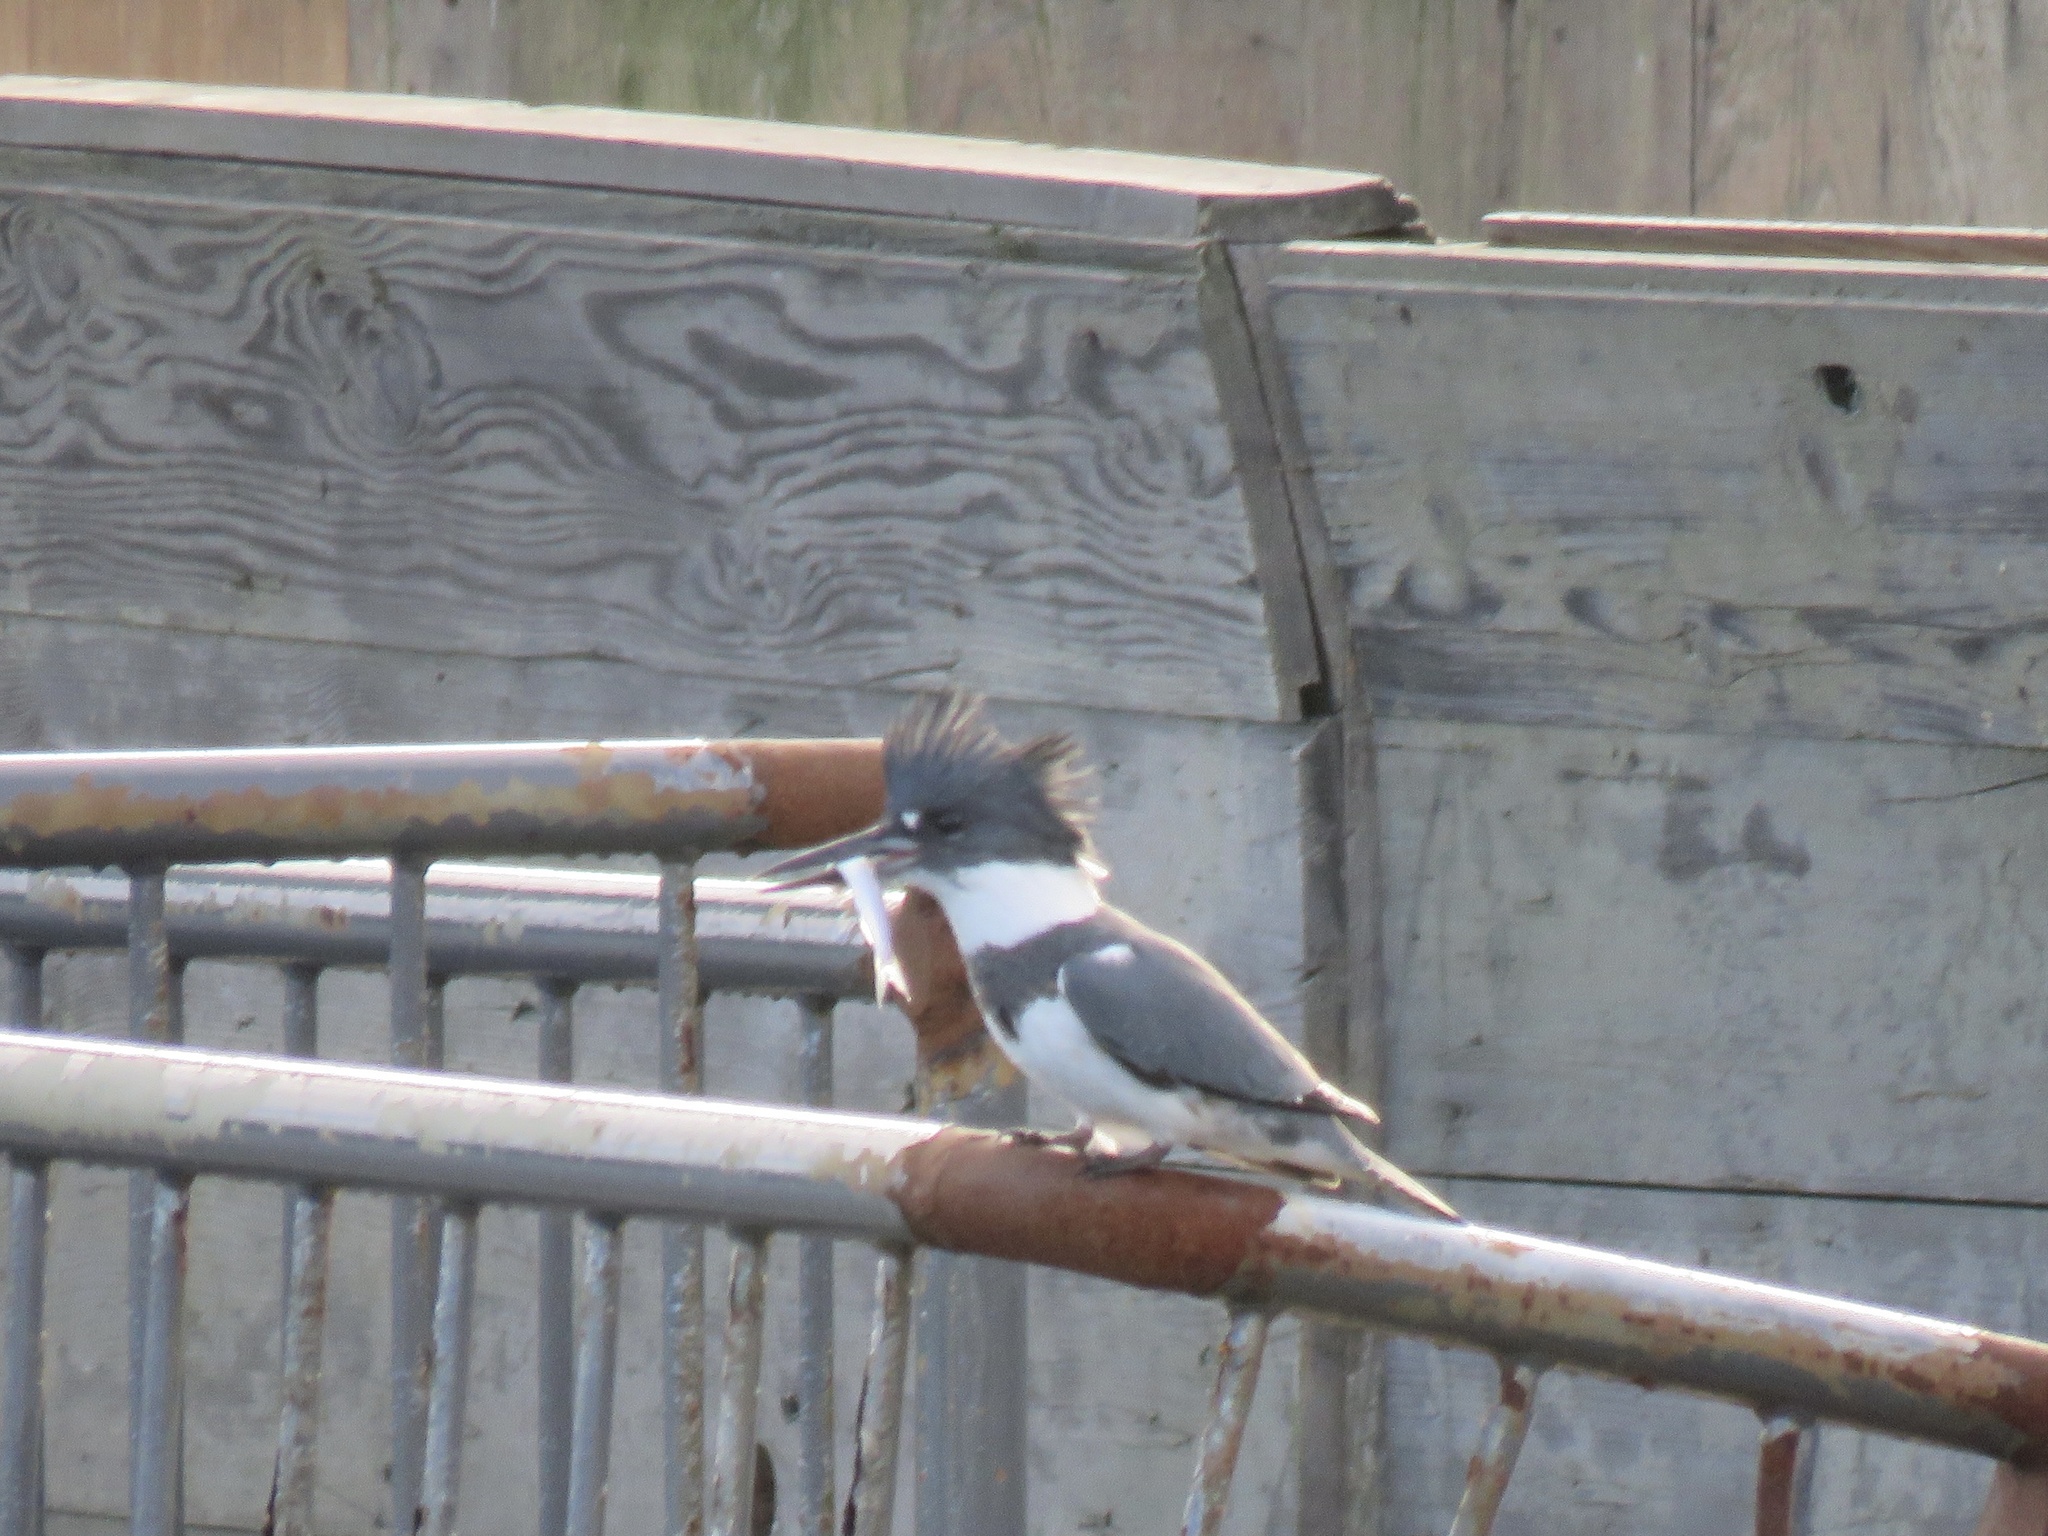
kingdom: Animalia
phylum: Chordata
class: Aves
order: Coraciiformes
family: Alcedinidae
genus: Megaceryle
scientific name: Megaceryle alcyon
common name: Belted kingfisher
